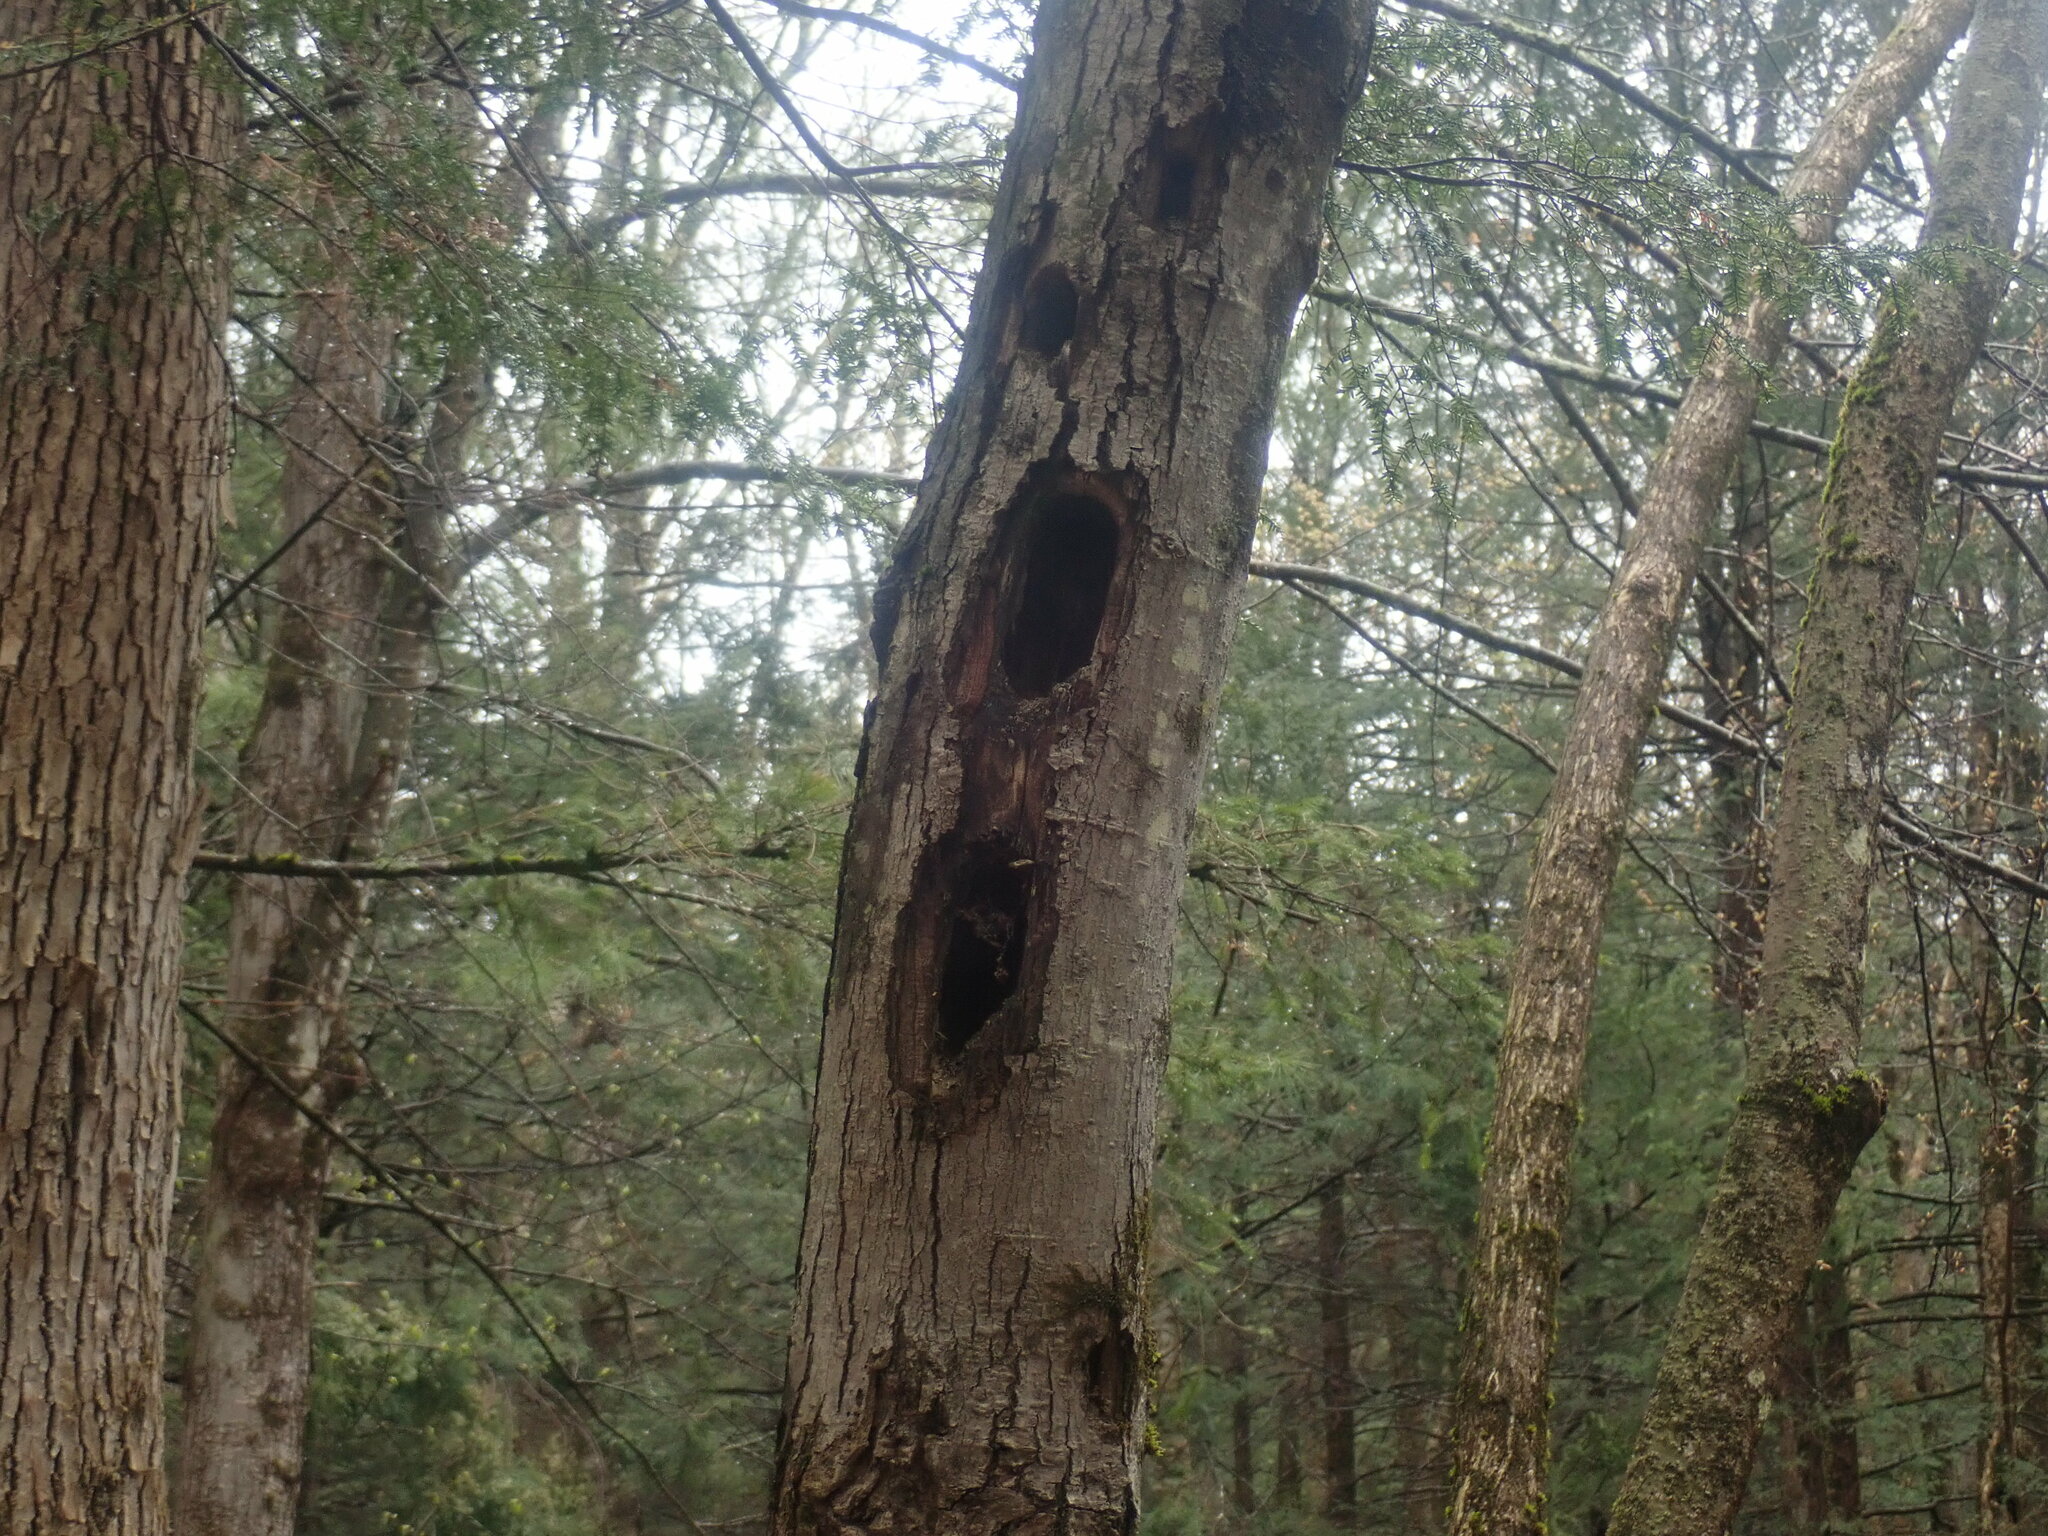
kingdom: Animalia
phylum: Chordata
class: Aves
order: Piciformes
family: Picidae
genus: Dryocopus
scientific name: Dryocopus pileatus
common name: Pileated woodpecker
